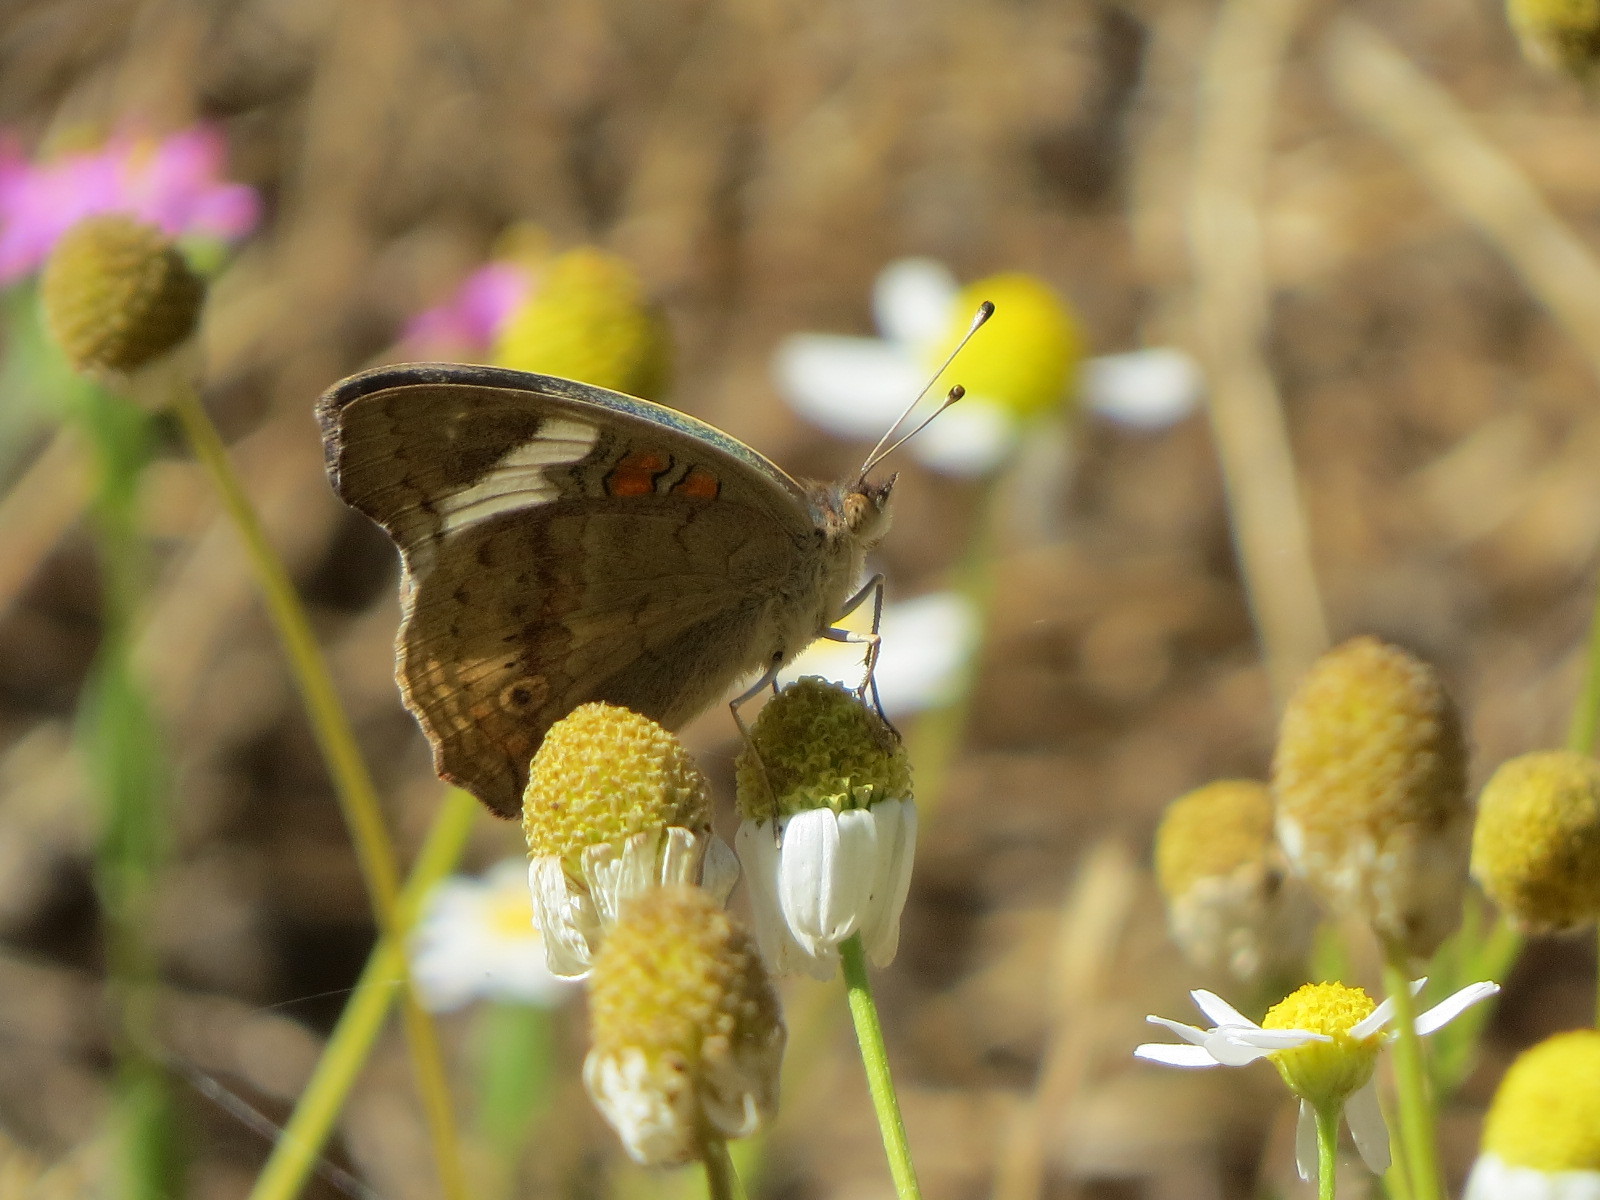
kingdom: Animalia
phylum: Arthropoda
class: Insecta
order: Lepidoptera
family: Nymphalidae
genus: Junonia
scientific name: Junonia grisea
